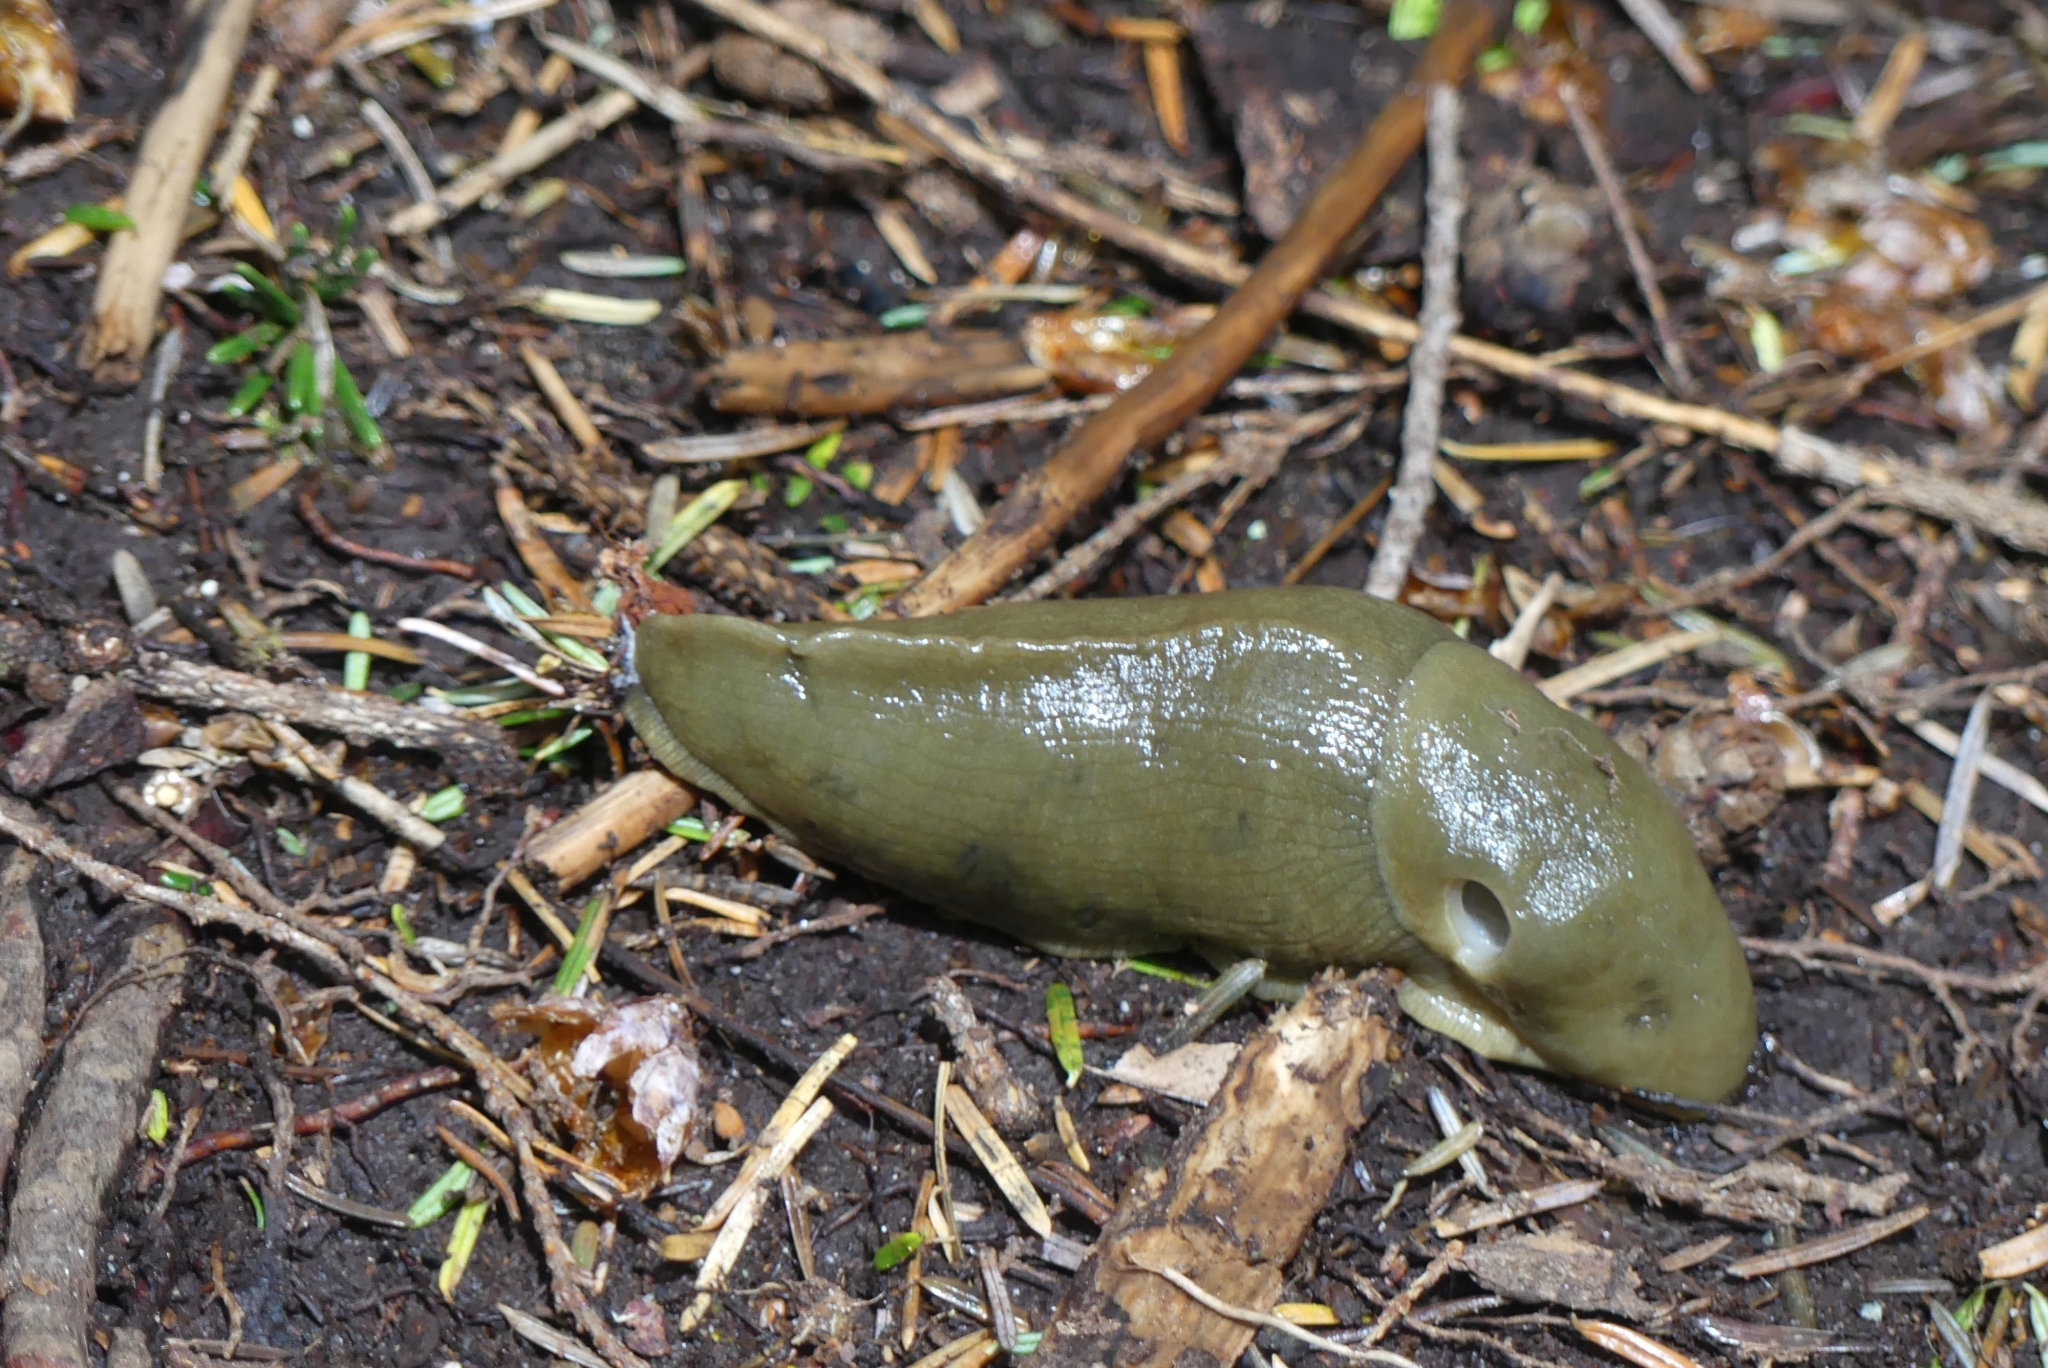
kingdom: Animalia
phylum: Mollusca
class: Gastropoda
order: Stylommatophora
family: Ariolimacidae
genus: Ariolimax
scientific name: Ariolimax columbianus
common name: Pacific banana slug
